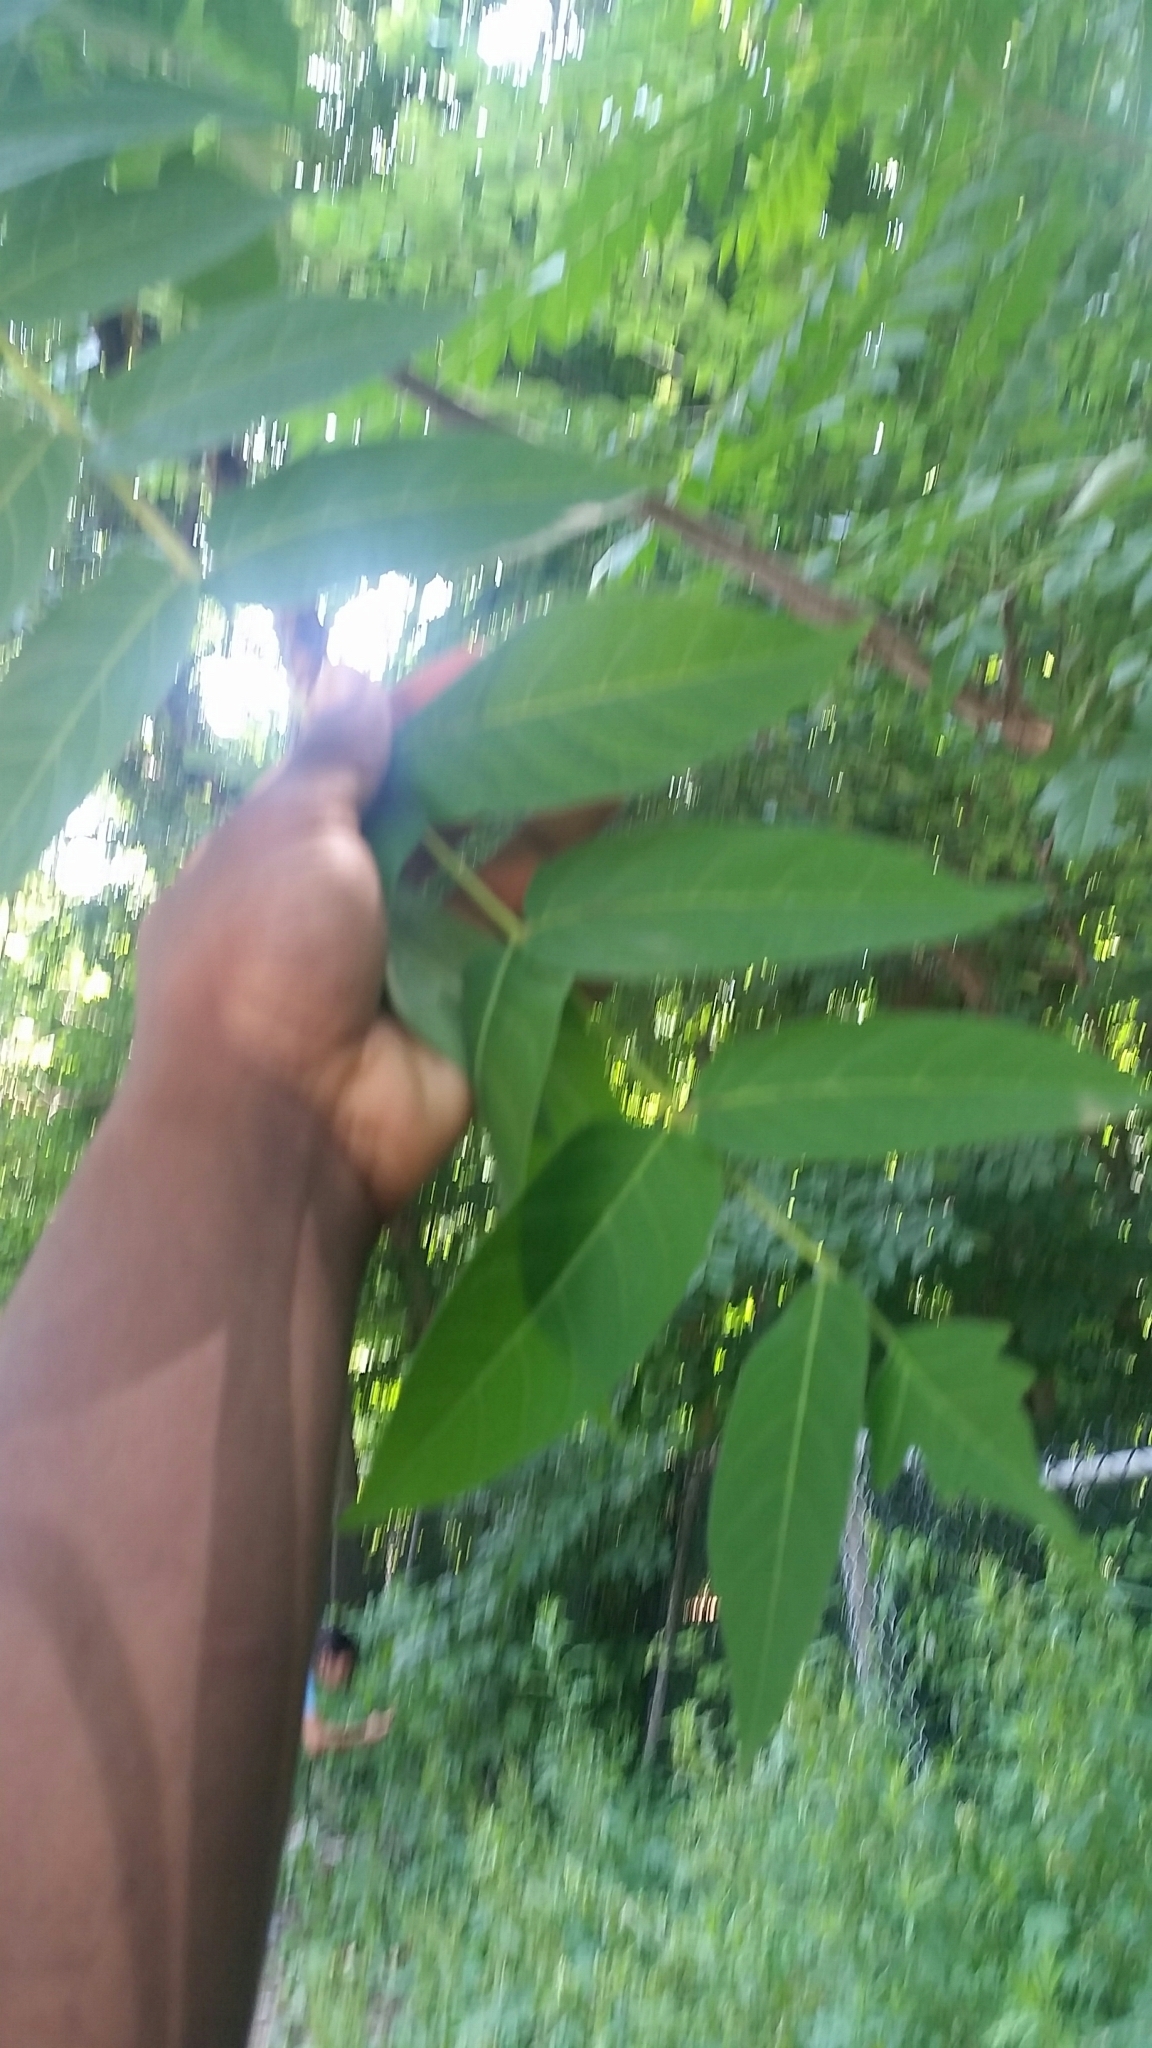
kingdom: Plantae
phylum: Tracheophyta
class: Magnoliopsida
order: Sapindales
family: Simaroubaceae
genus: Ailanthus
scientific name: Ailanthus altissima
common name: Tree-of-heaven
